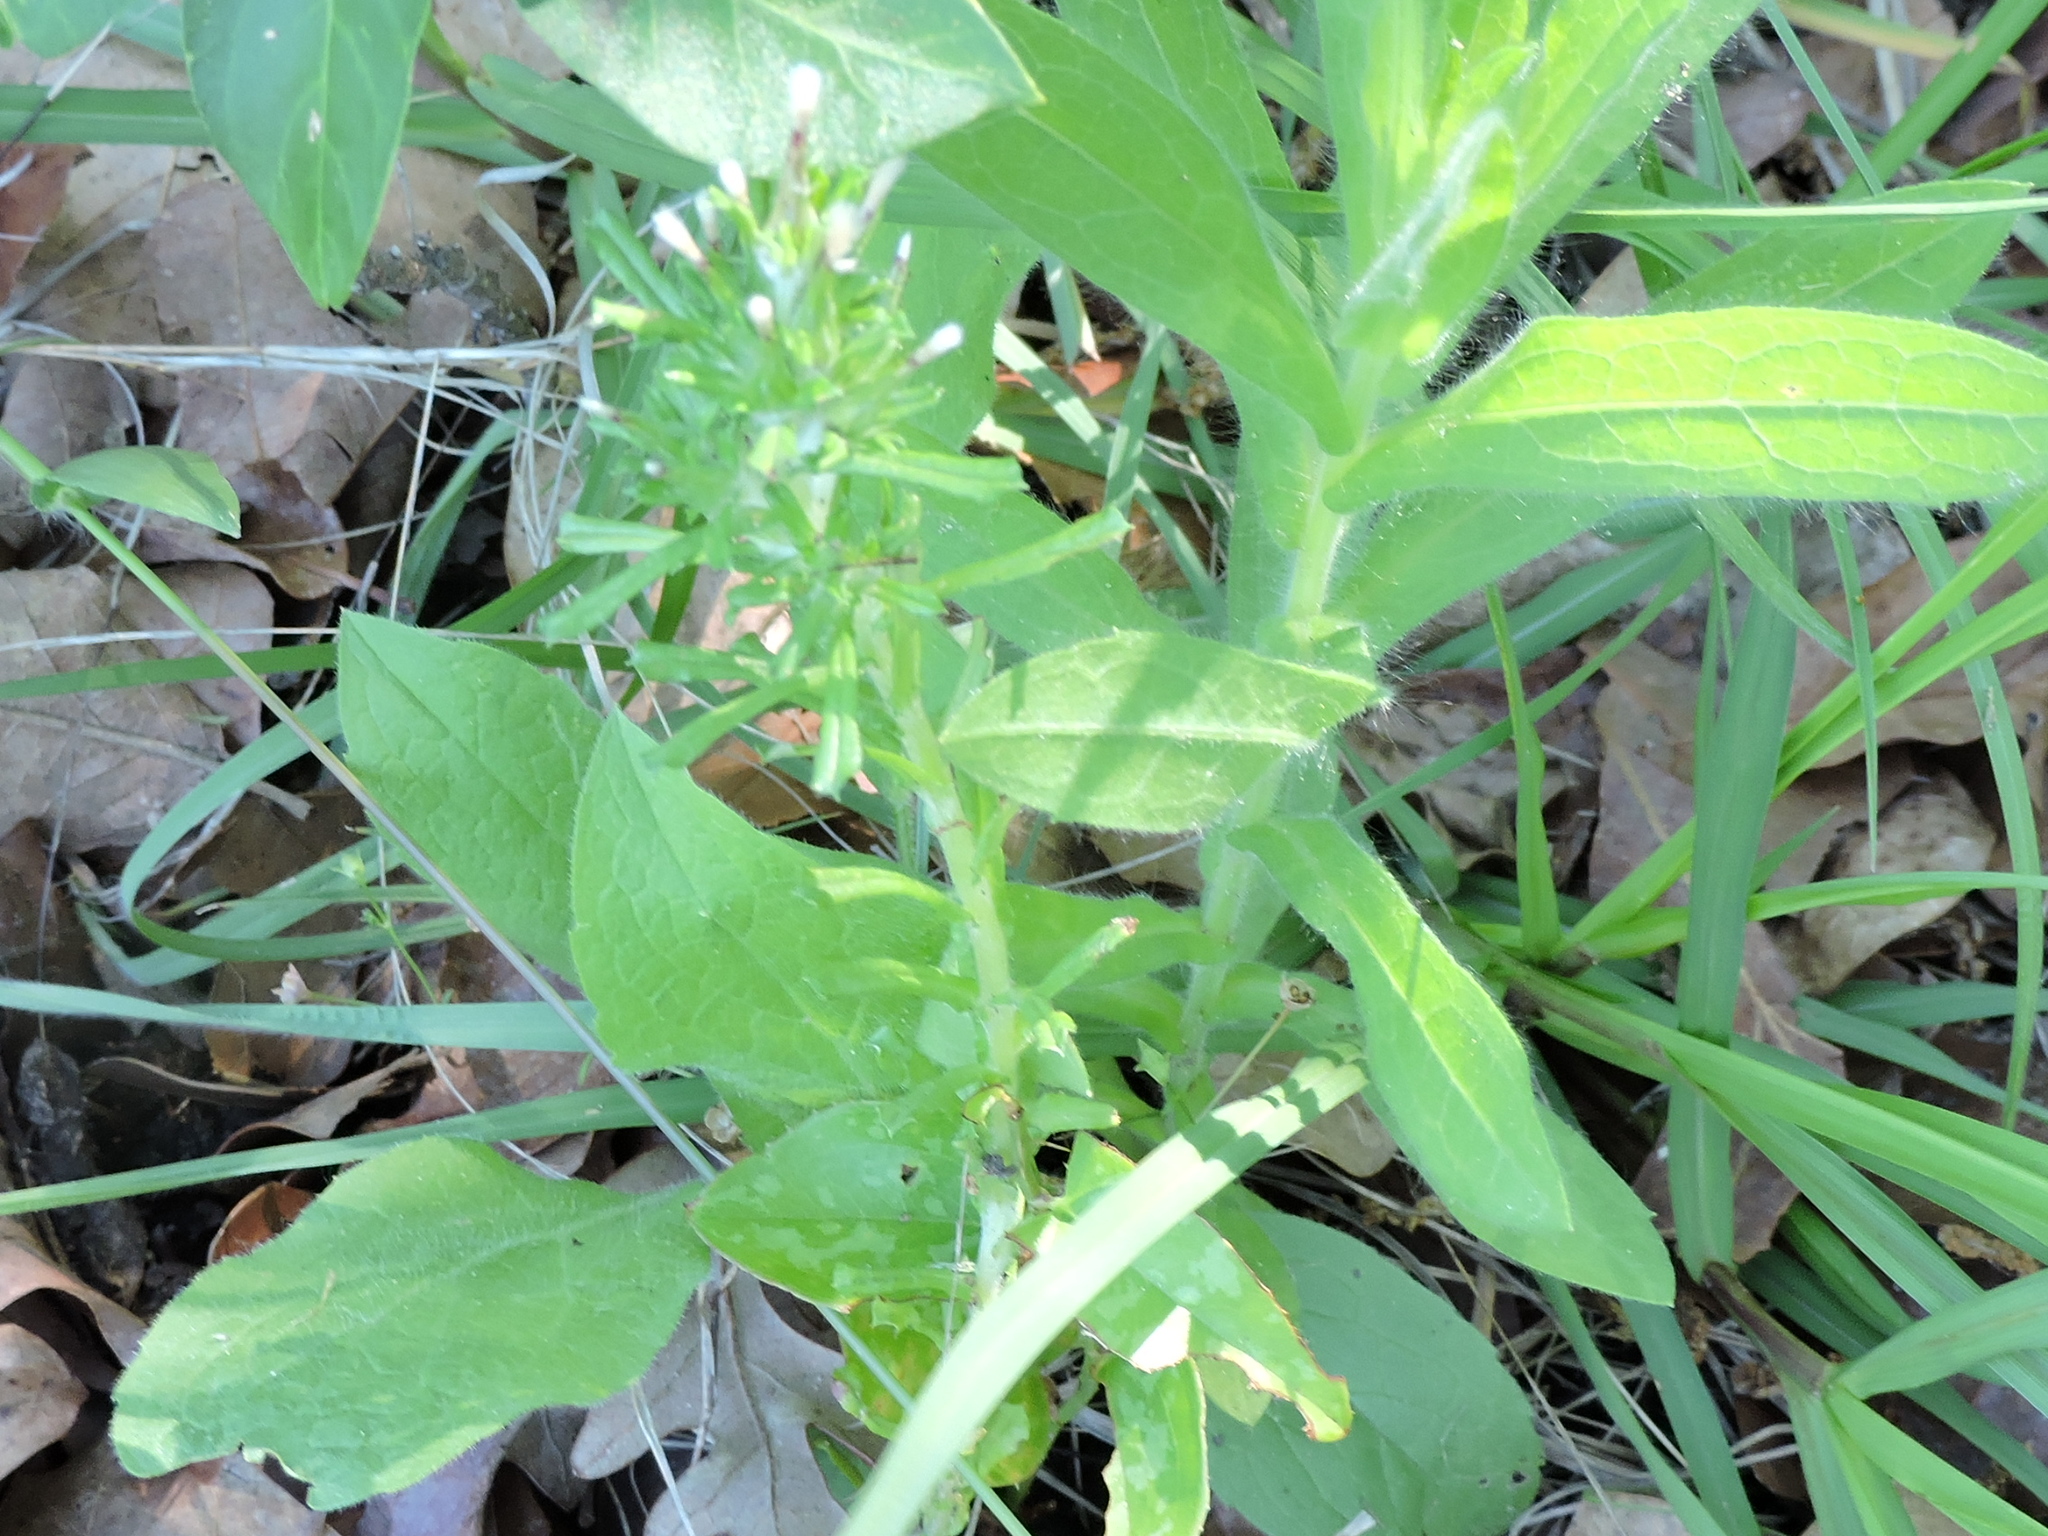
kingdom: Plantae
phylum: Tracheophyta
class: Magnoliopsida
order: Asterales
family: Asteraceae
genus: Facelis
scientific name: Facelis retusa
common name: Annual trampweed
